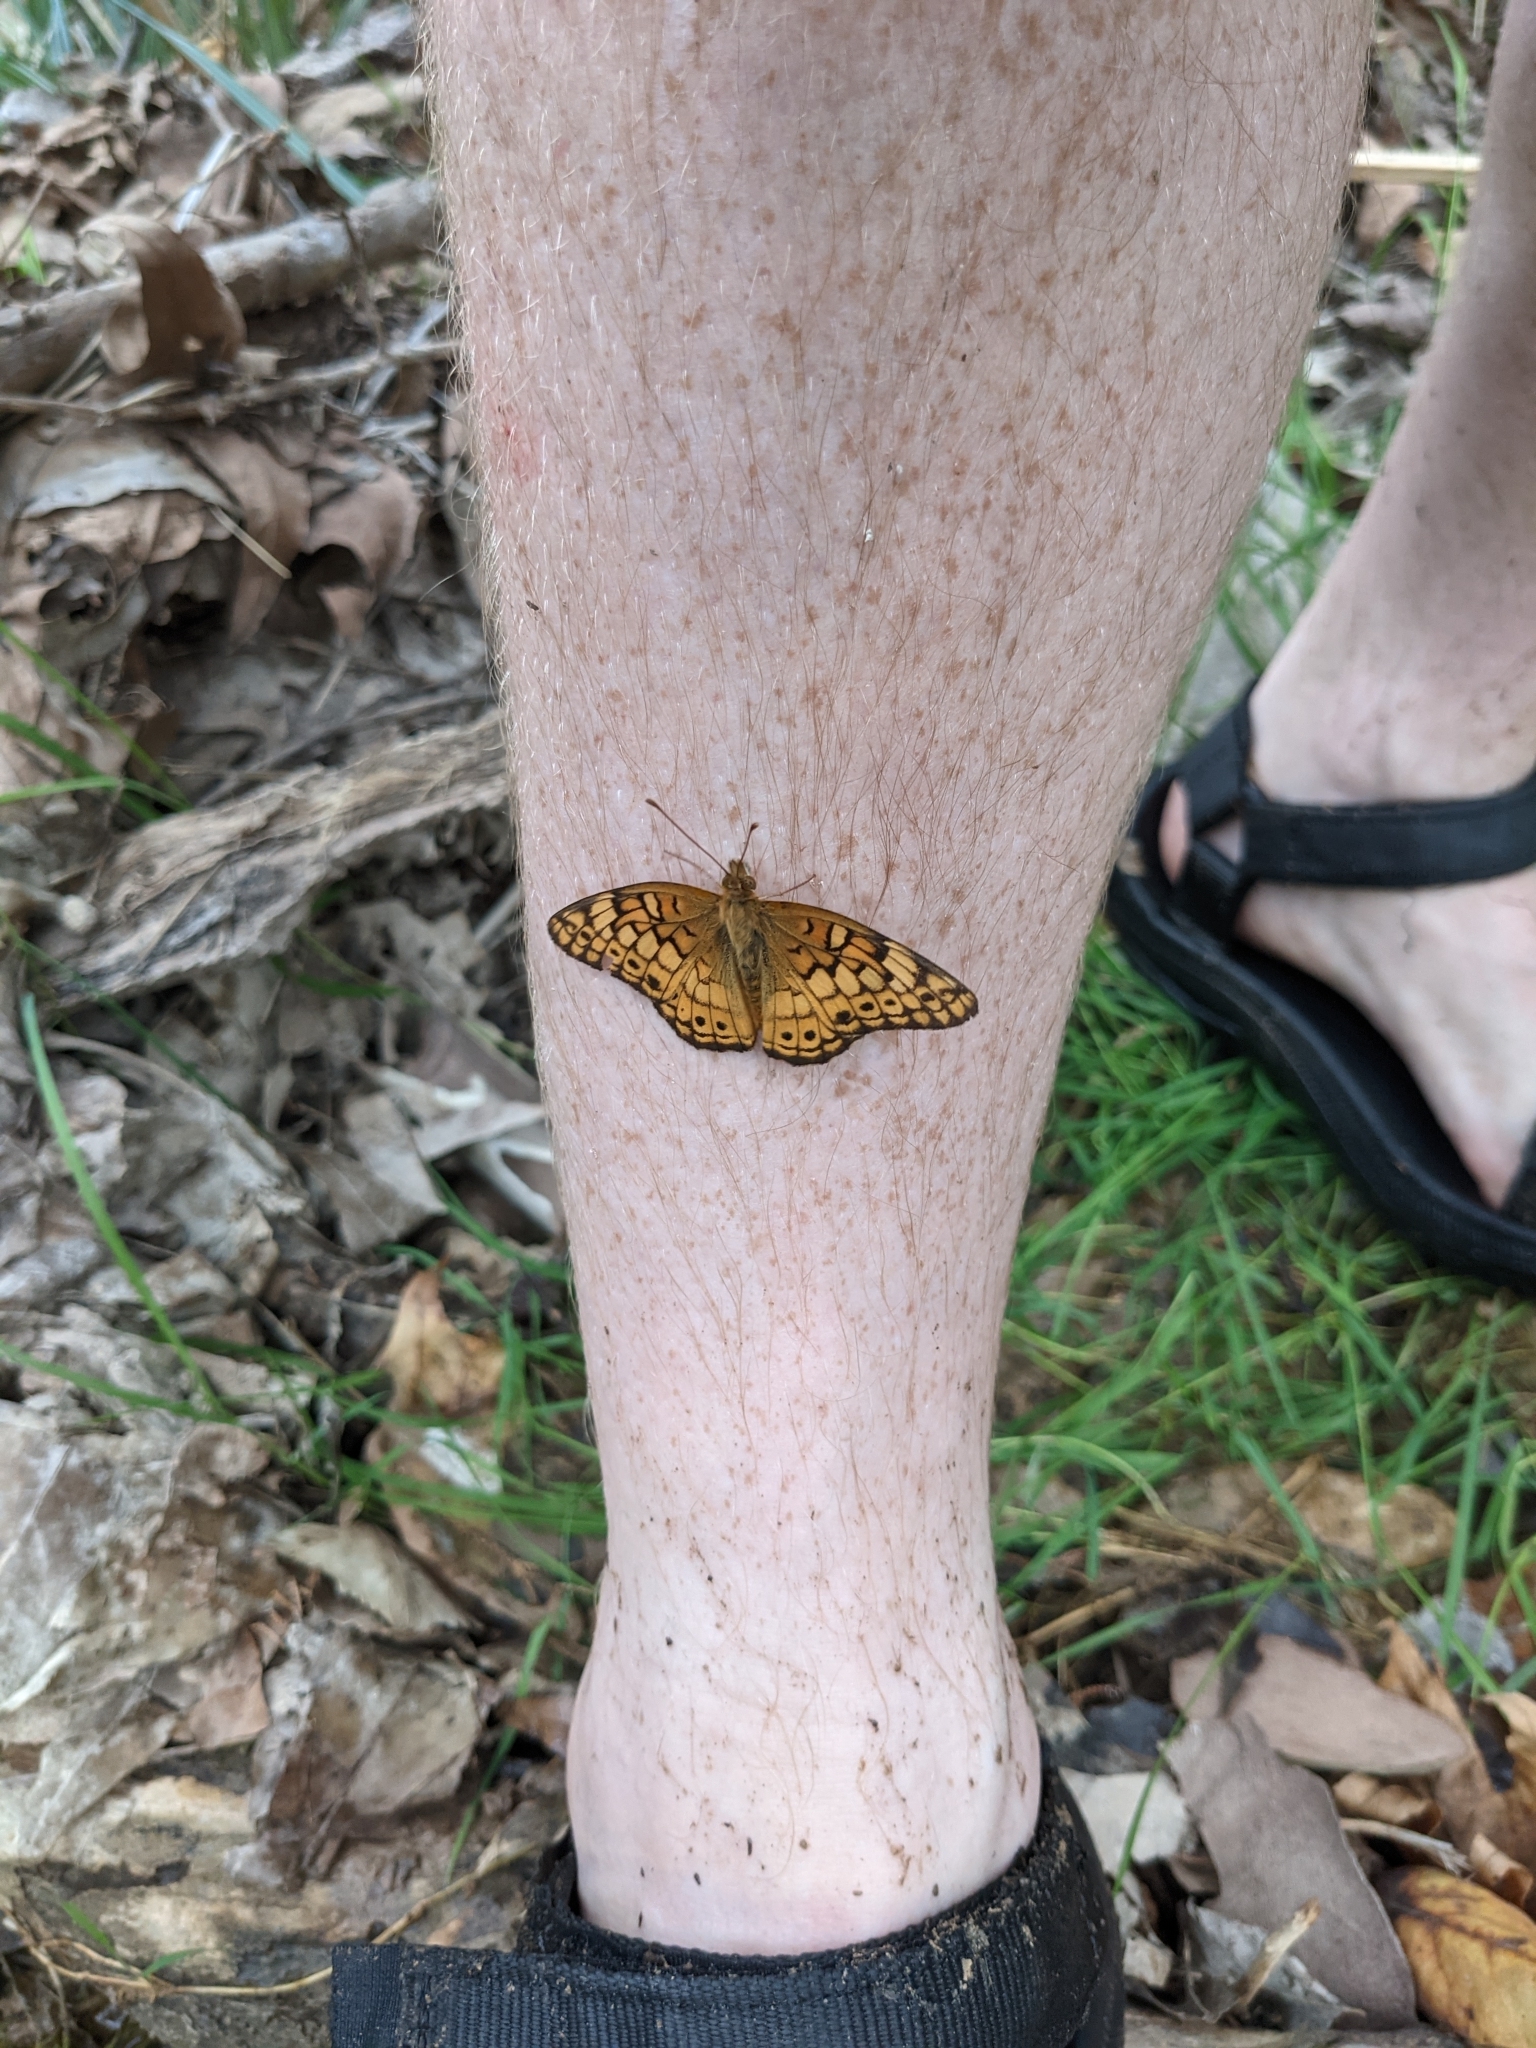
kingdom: Animalia
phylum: Arthropoda
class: Insecta
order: Lepidoptera
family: Nymphalidae
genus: Euptoieta
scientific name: Euptoieta claudia
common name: Variegated fritillary
